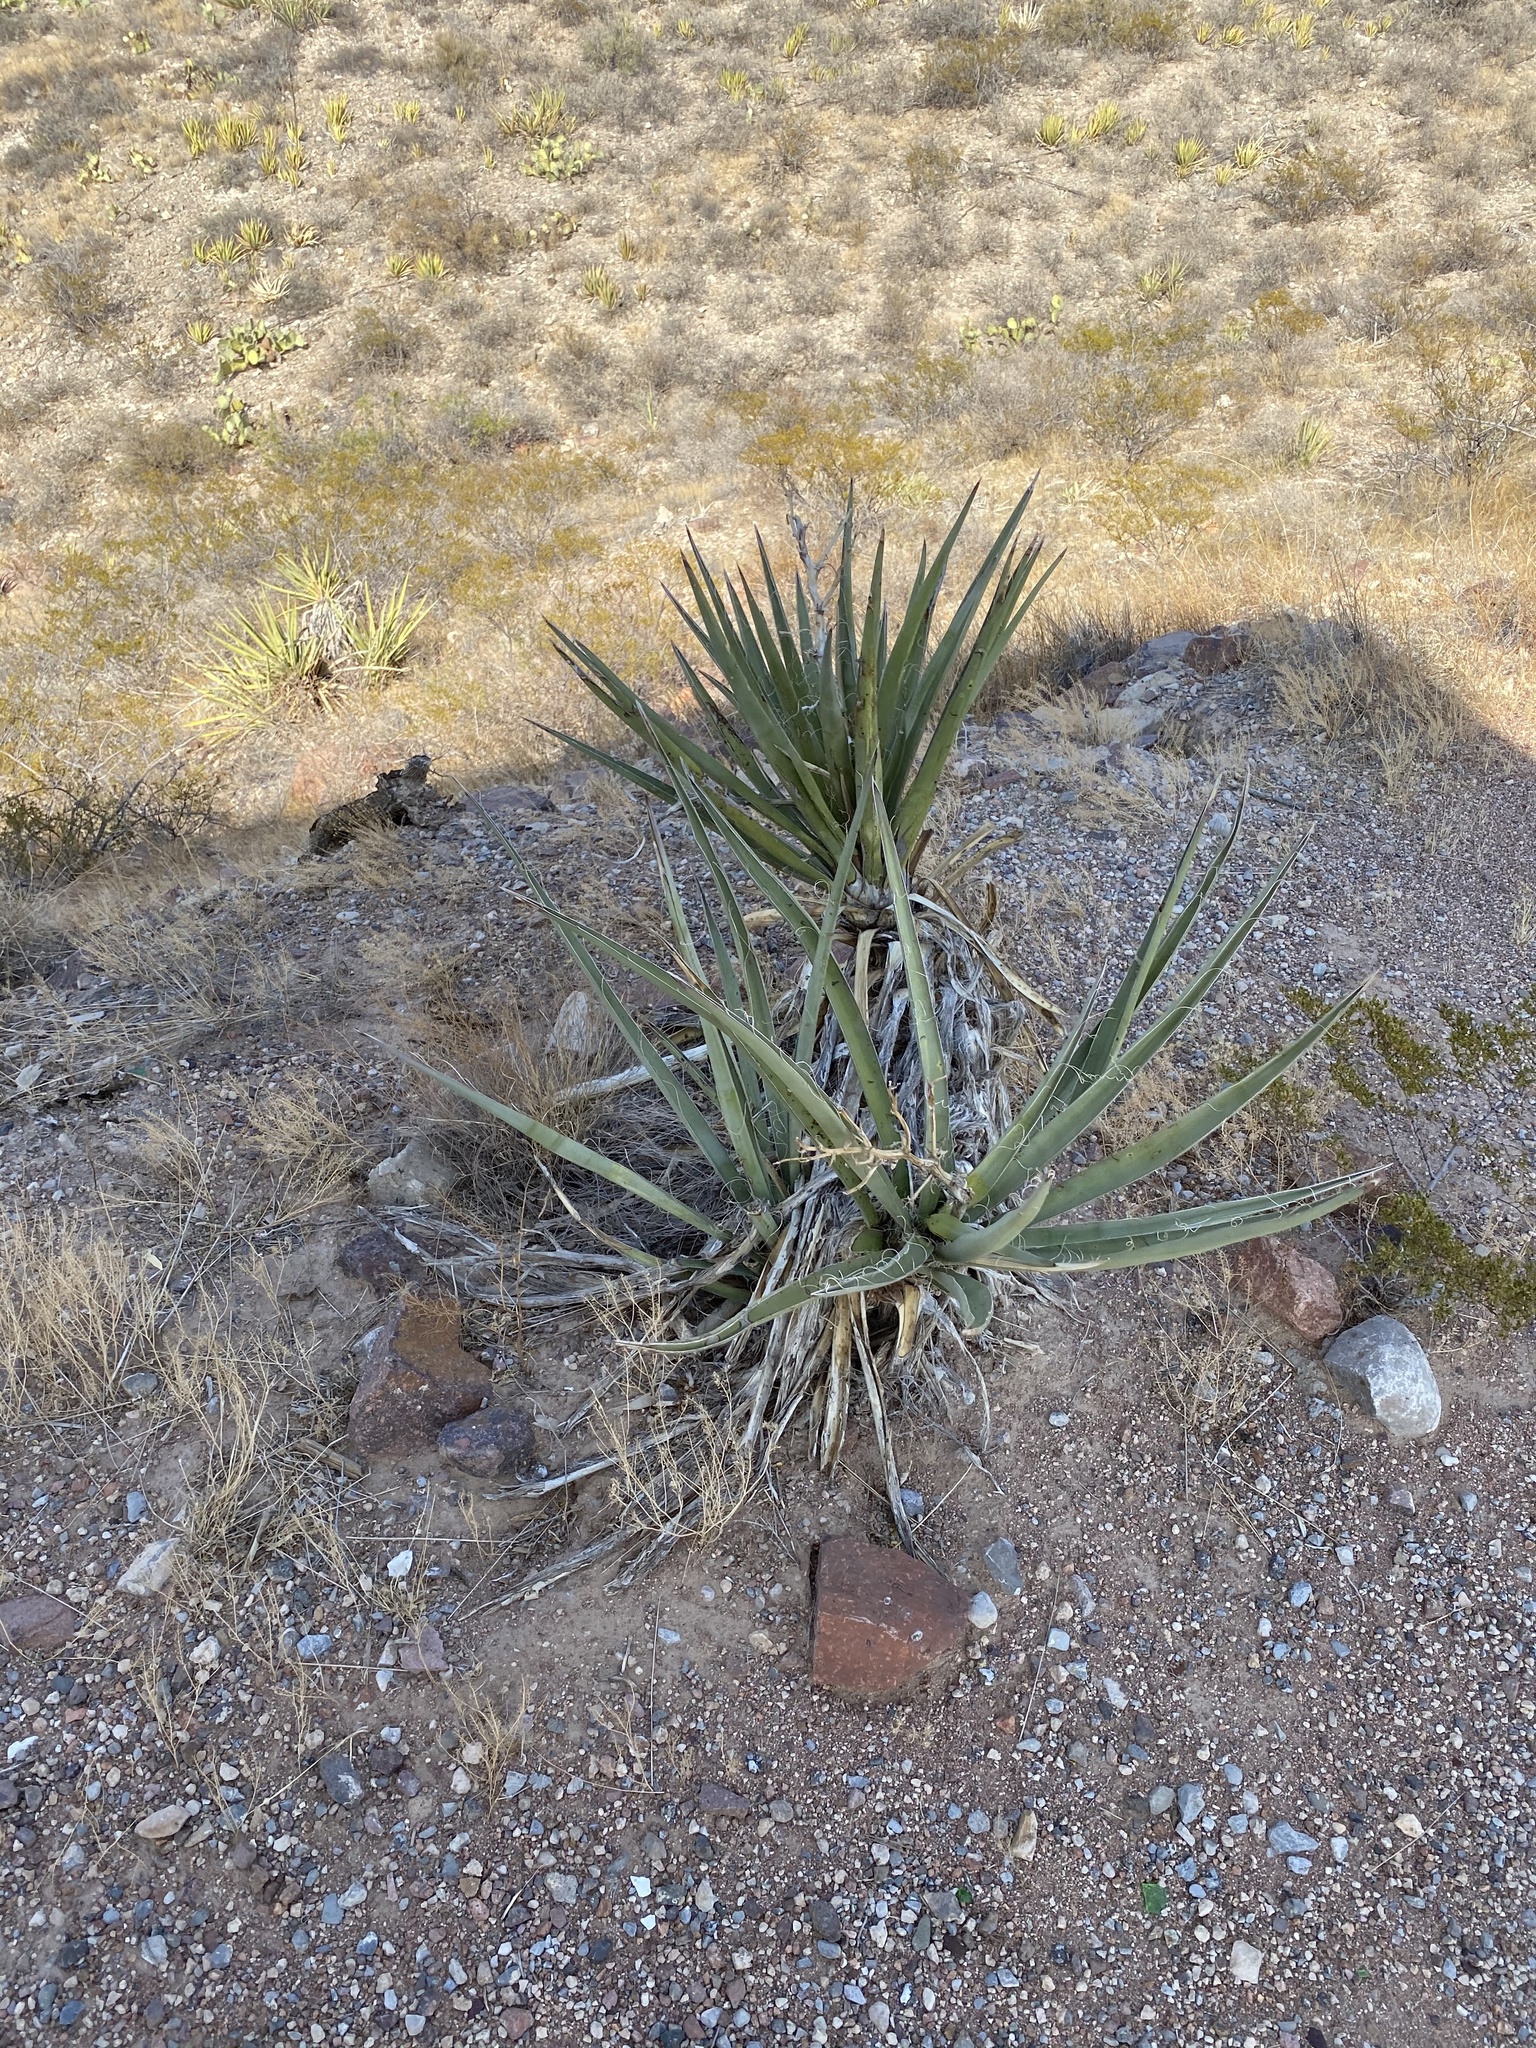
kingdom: Plantae
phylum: Tracheophyta
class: Liliopsida
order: Asparagales
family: Asparagaceae
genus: Yucca
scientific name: Yucca baccata
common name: Banana yucca
